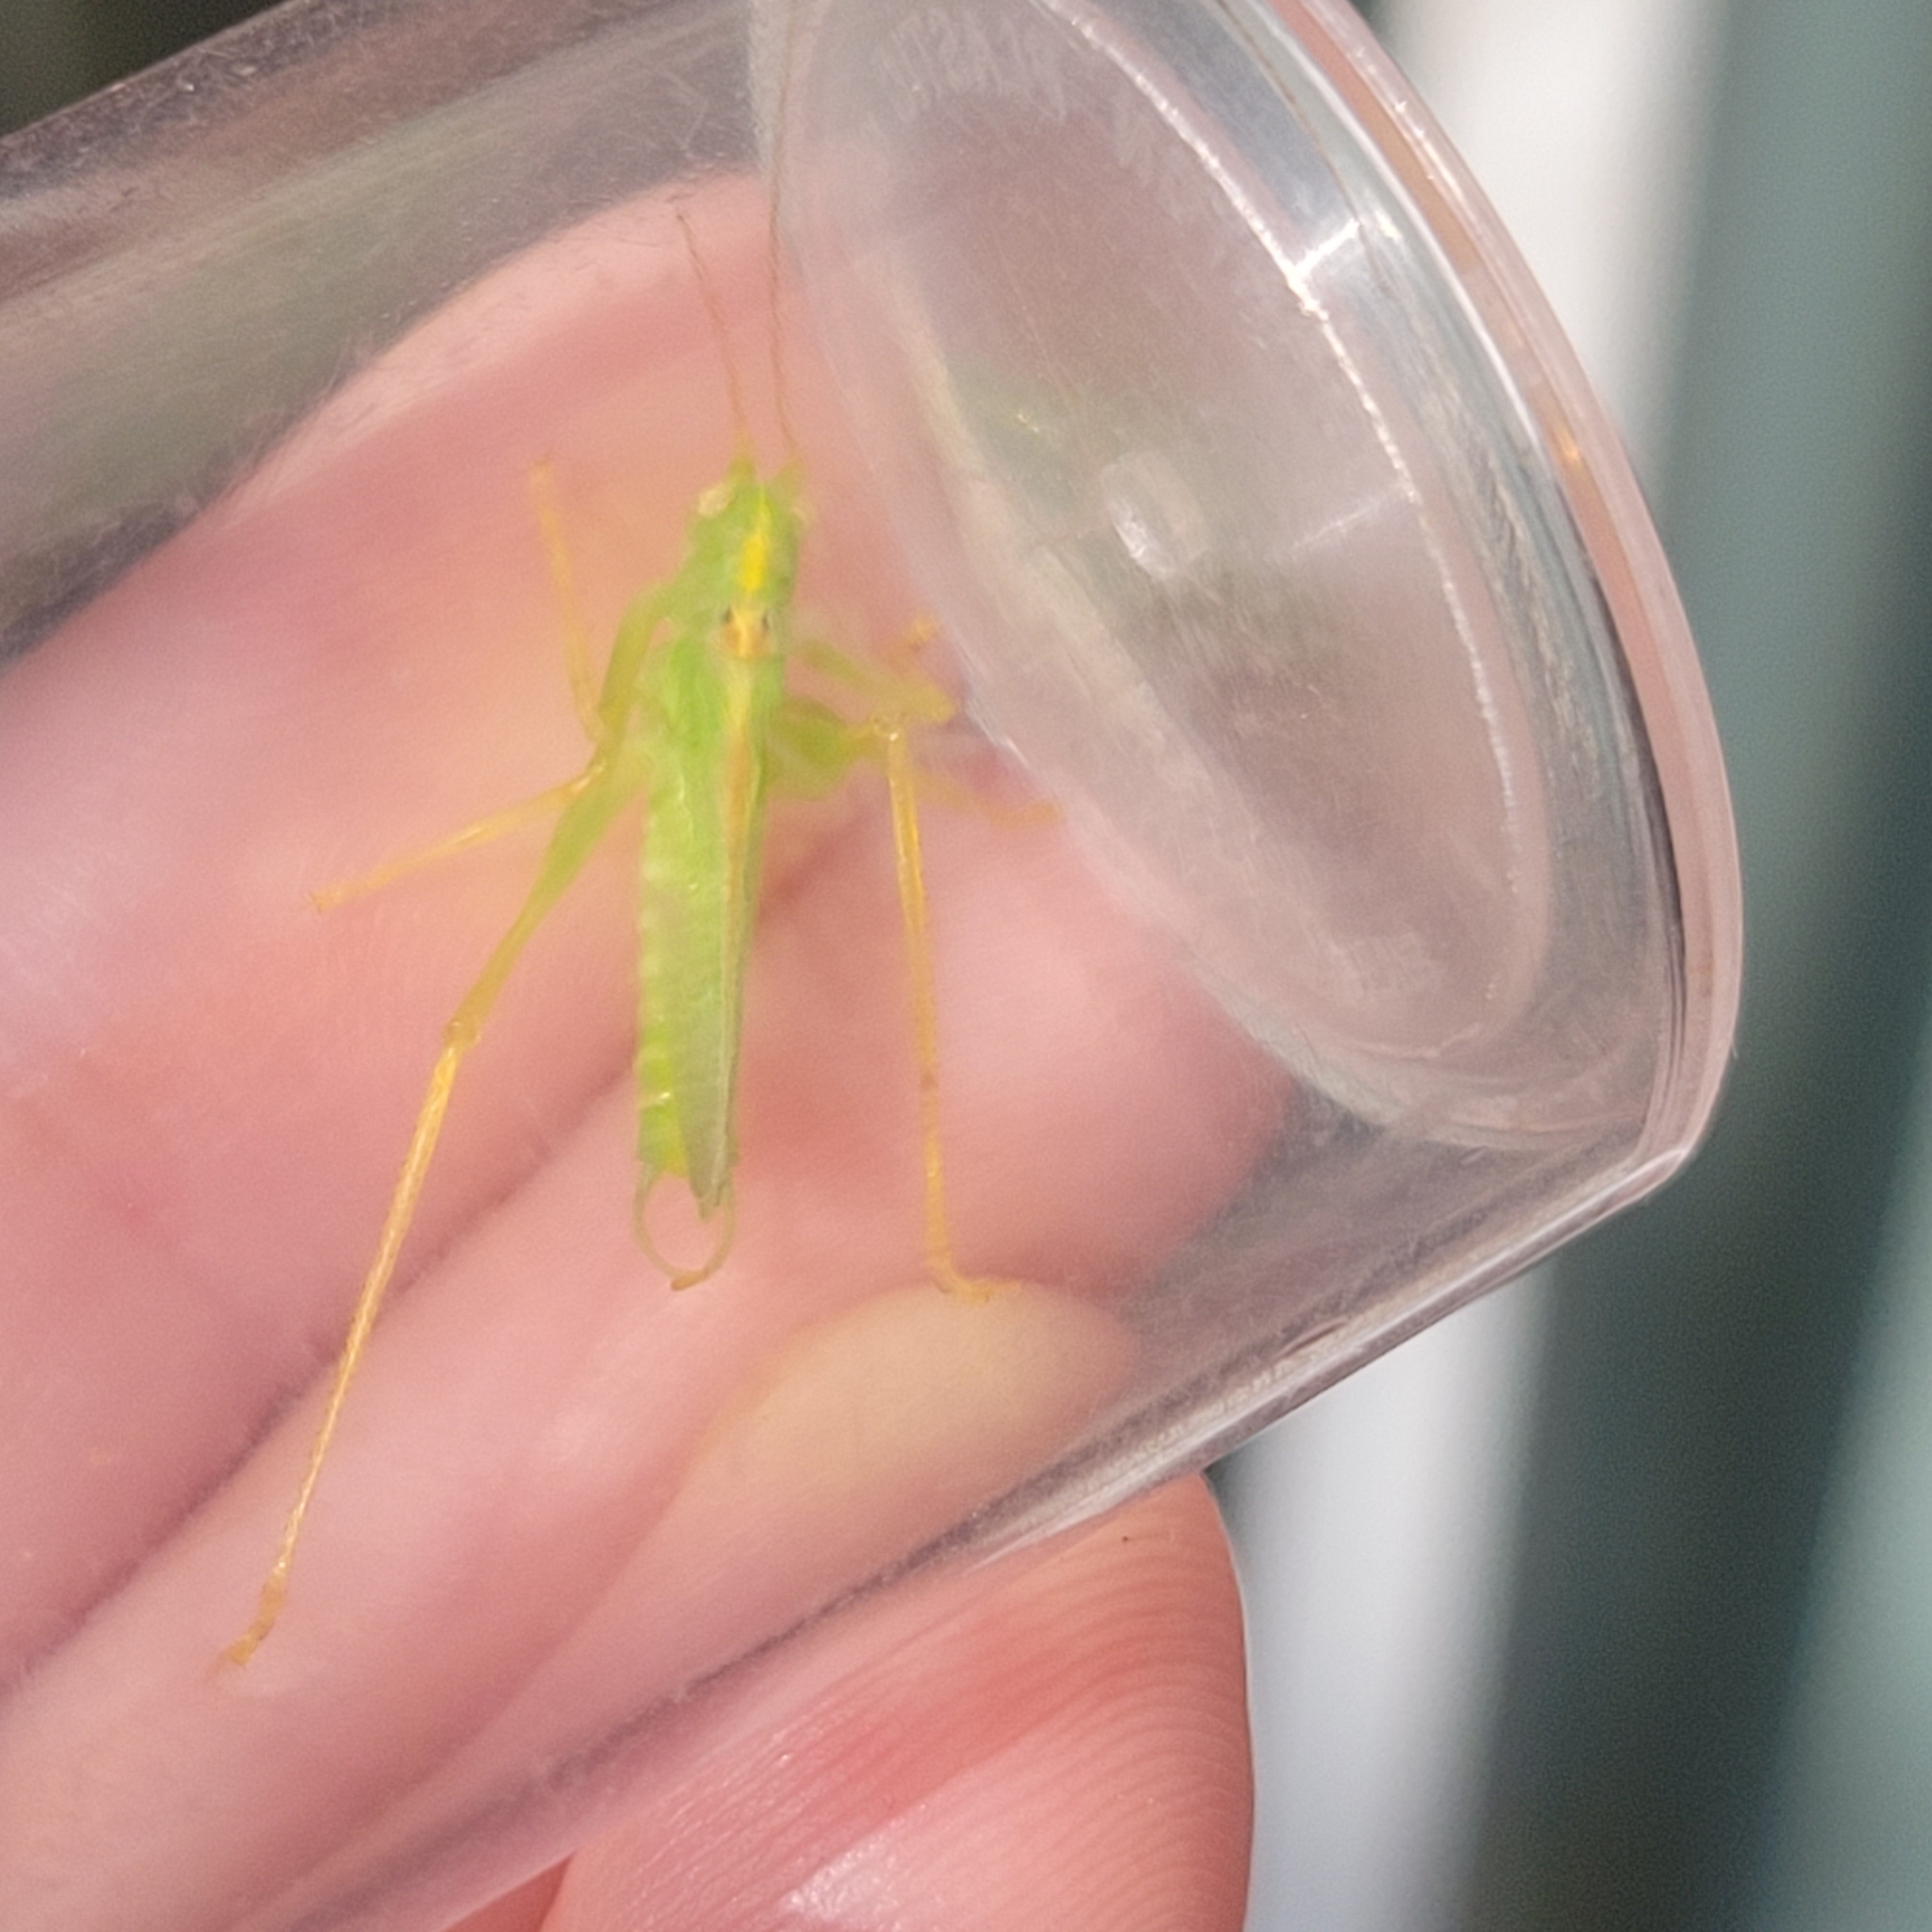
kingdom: Animalia
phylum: Arthropoda
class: Insecta
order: Orthoptera
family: Tettigoniidae
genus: Meconema
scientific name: Meconema thalassinum
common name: Oak bush-cricket
